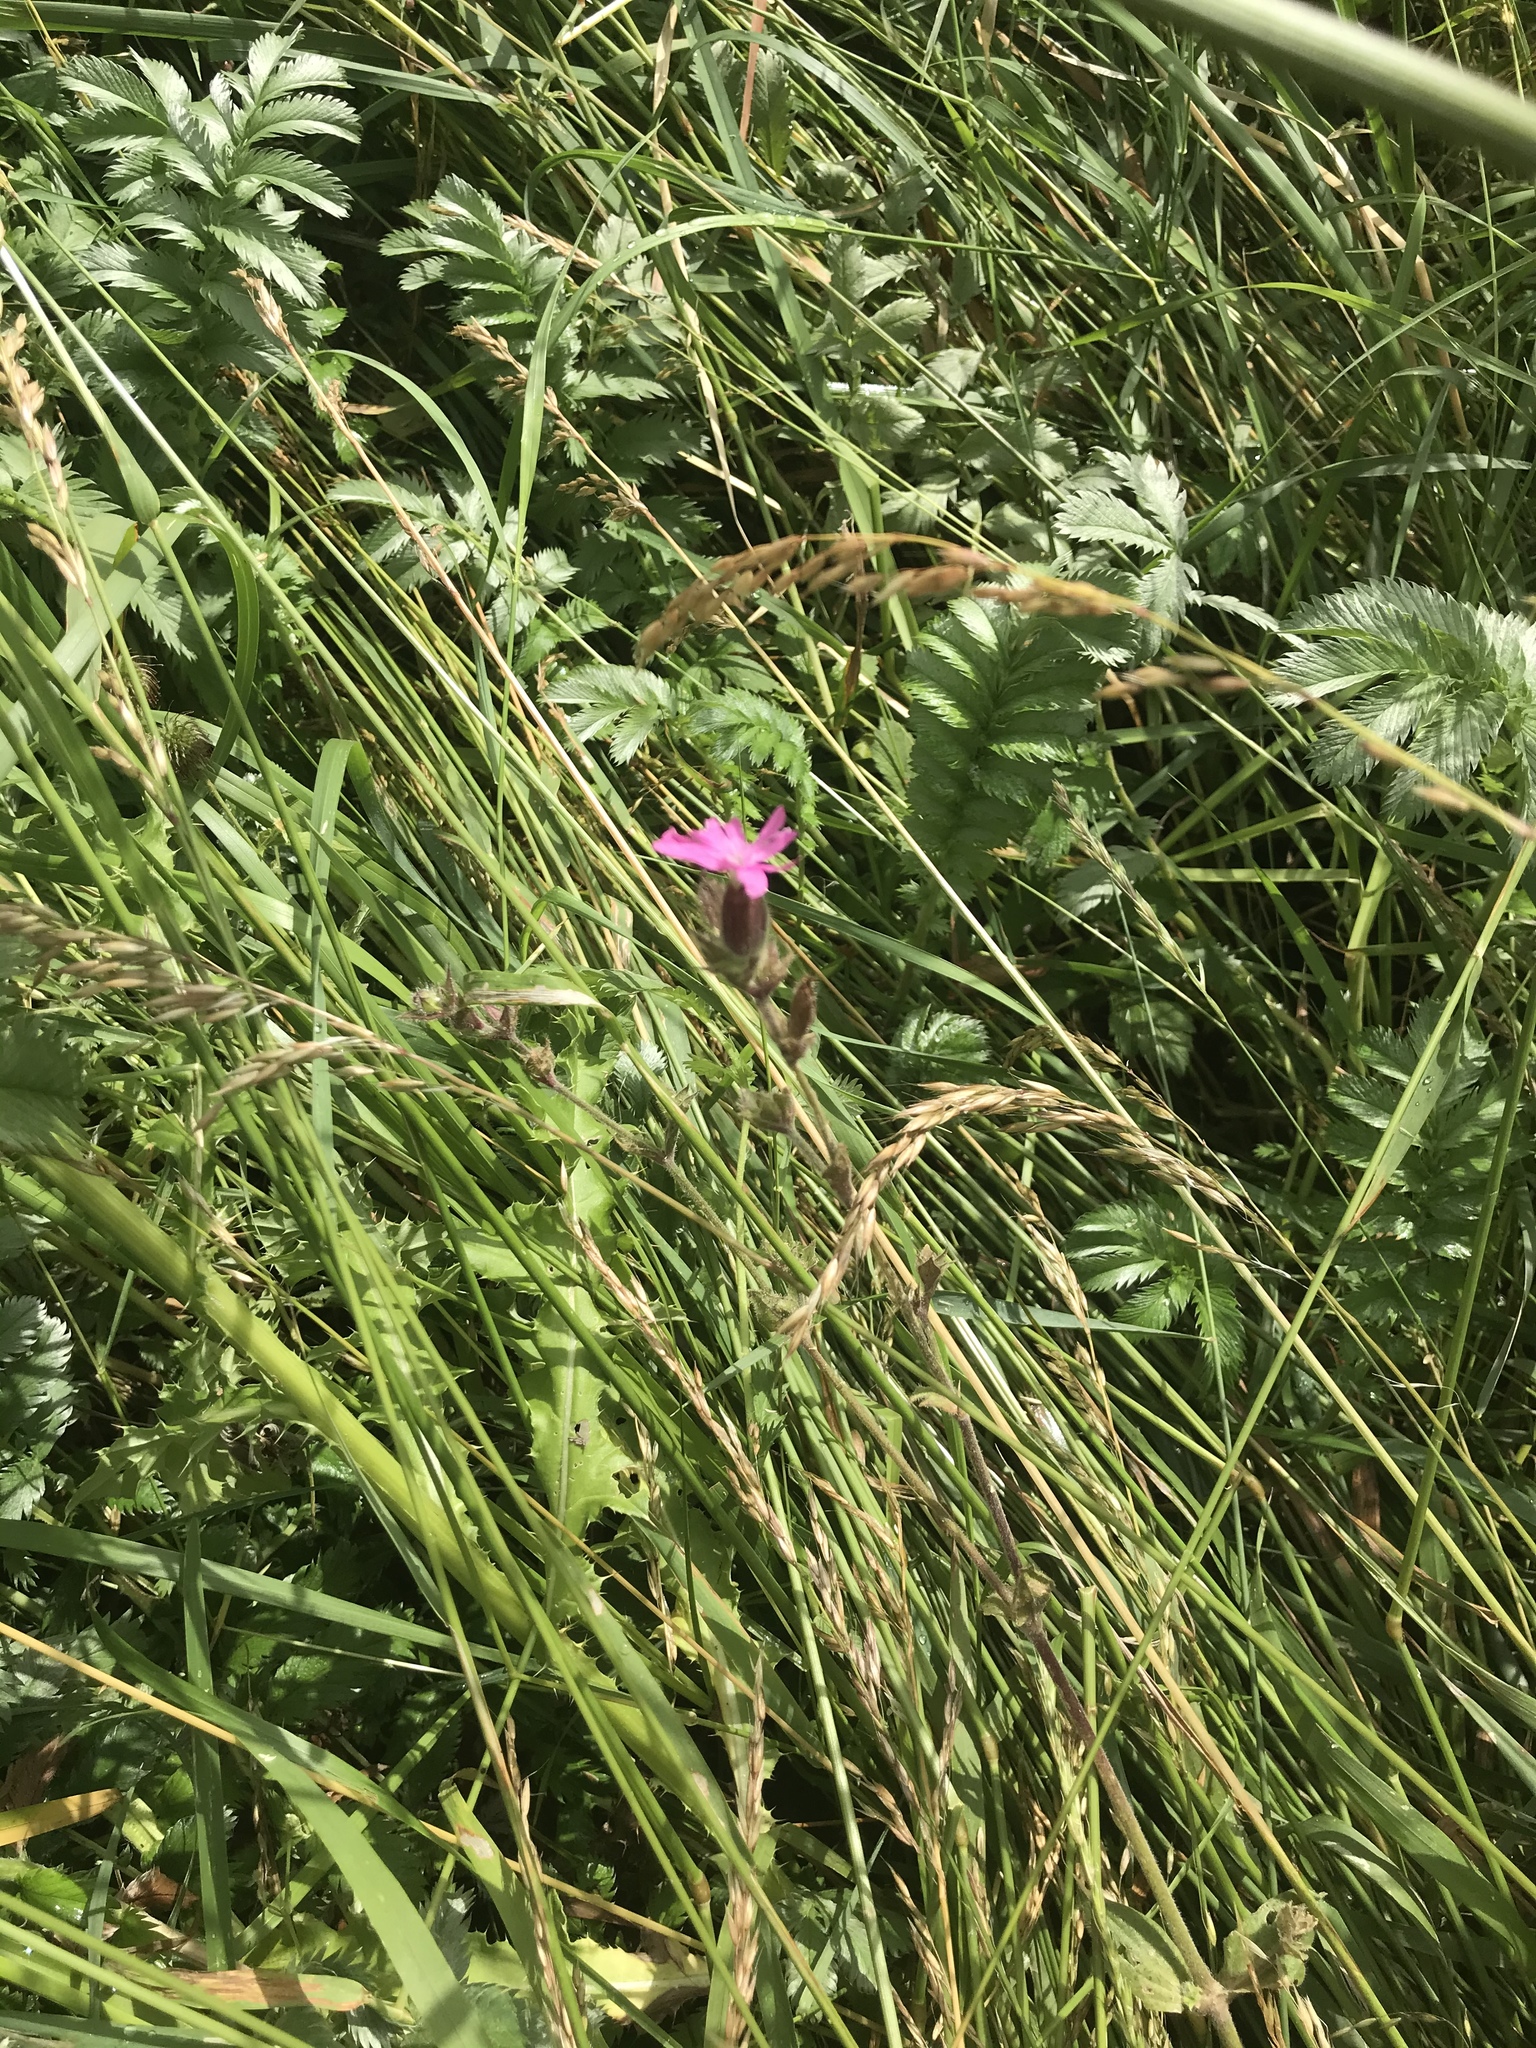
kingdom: Plantae
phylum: Tracheophyta
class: Magnoliopsida
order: Caryophyllales
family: Caryophyllaceae
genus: Silene
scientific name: Silene dioica
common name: Red campion
